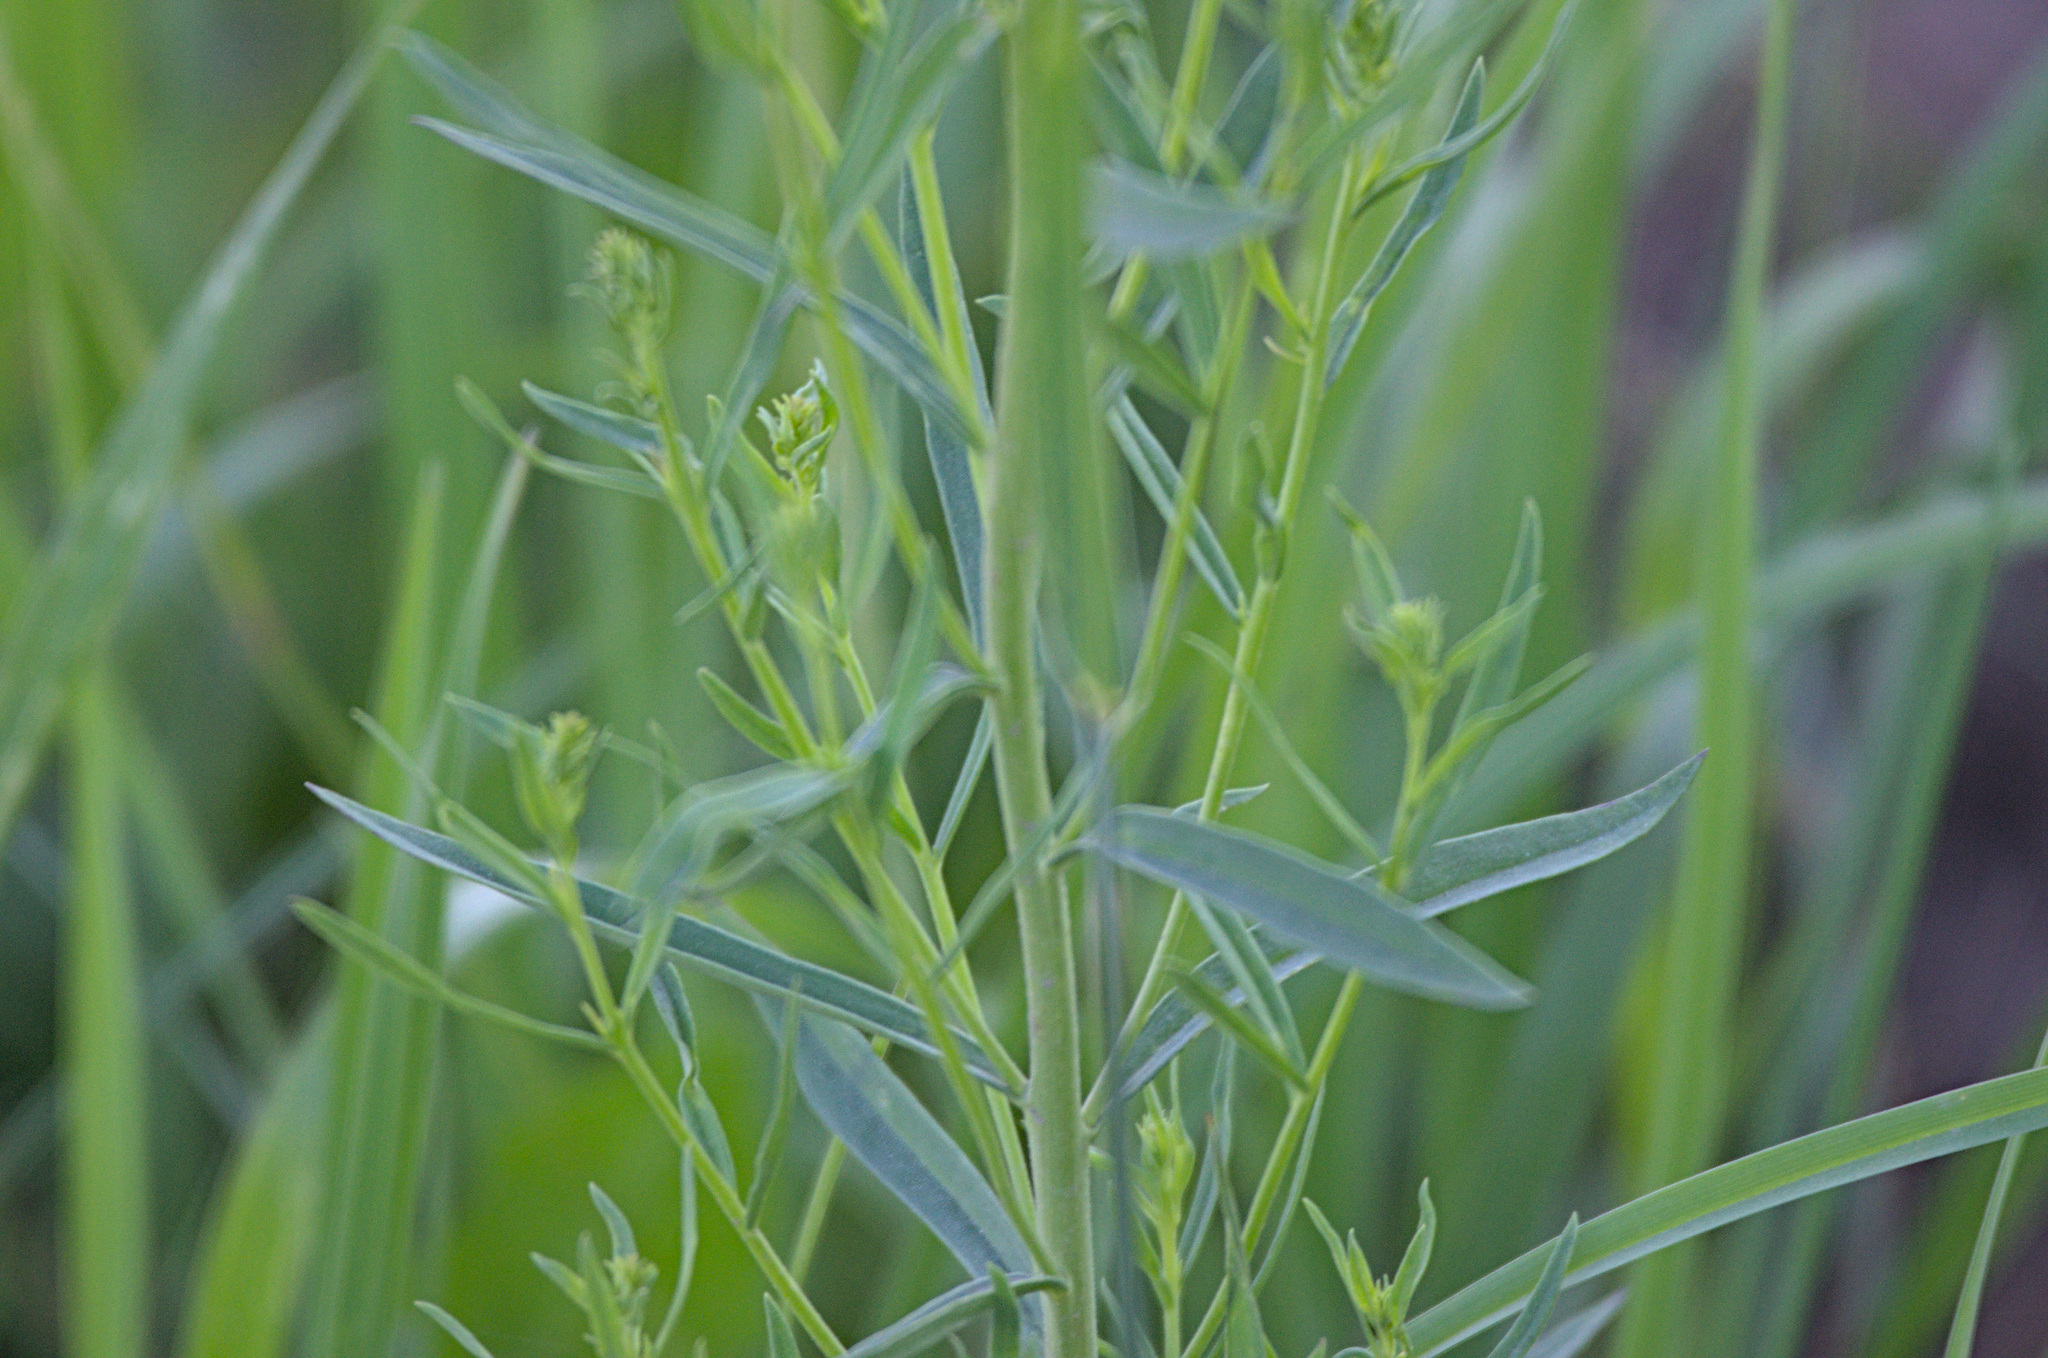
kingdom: Plantae
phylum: Tracheophyta
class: Magnoliopsida
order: Lamiales
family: Plantaginaceae
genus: Linaria
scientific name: Linaria vulgaris
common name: Butter and eggs
